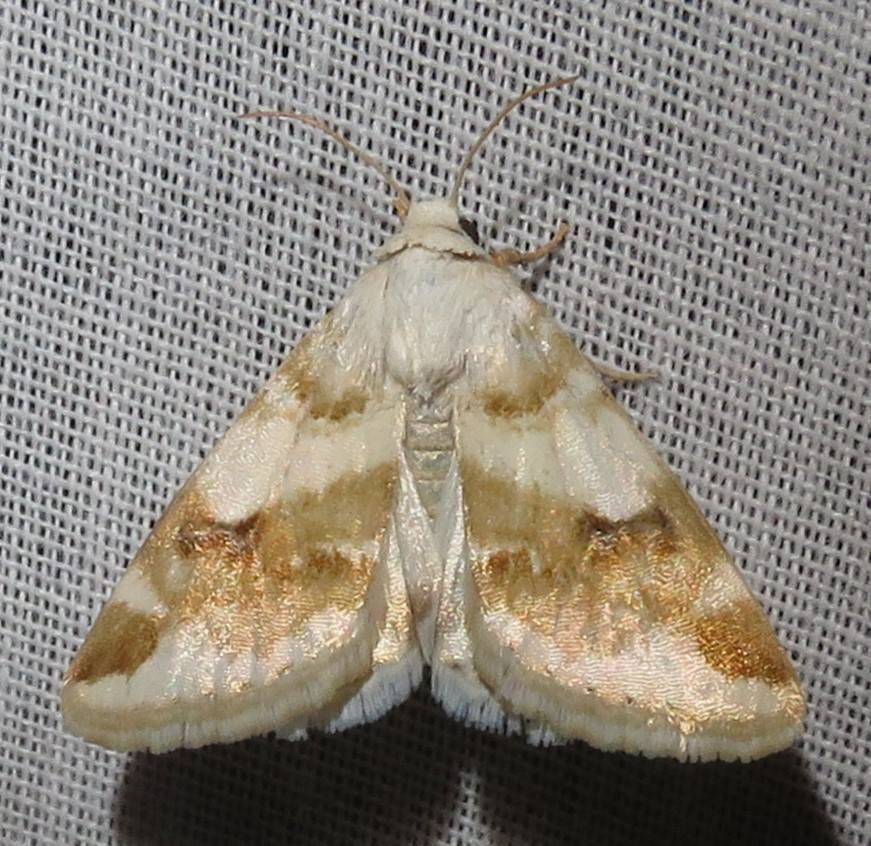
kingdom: Animalia
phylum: Arthropoda
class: Insecta
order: Lepidoptera
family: Noctuidae
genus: Schinia
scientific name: Schinia unimacula
